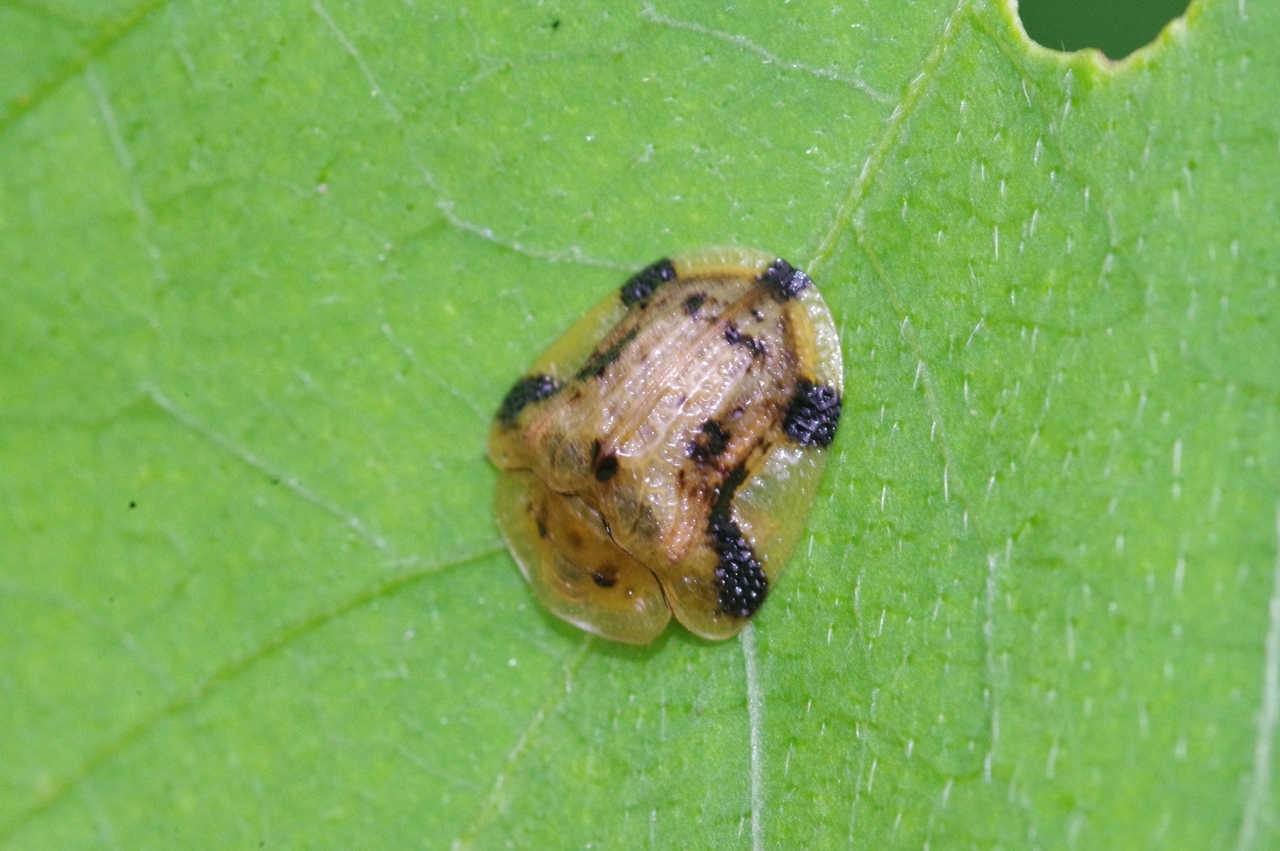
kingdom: Animalia
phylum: Arthropoda
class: Insecta
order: Coleoptera
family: Chrysomelidae
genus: Laccoptera
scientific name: Laccoptera nepalensis
